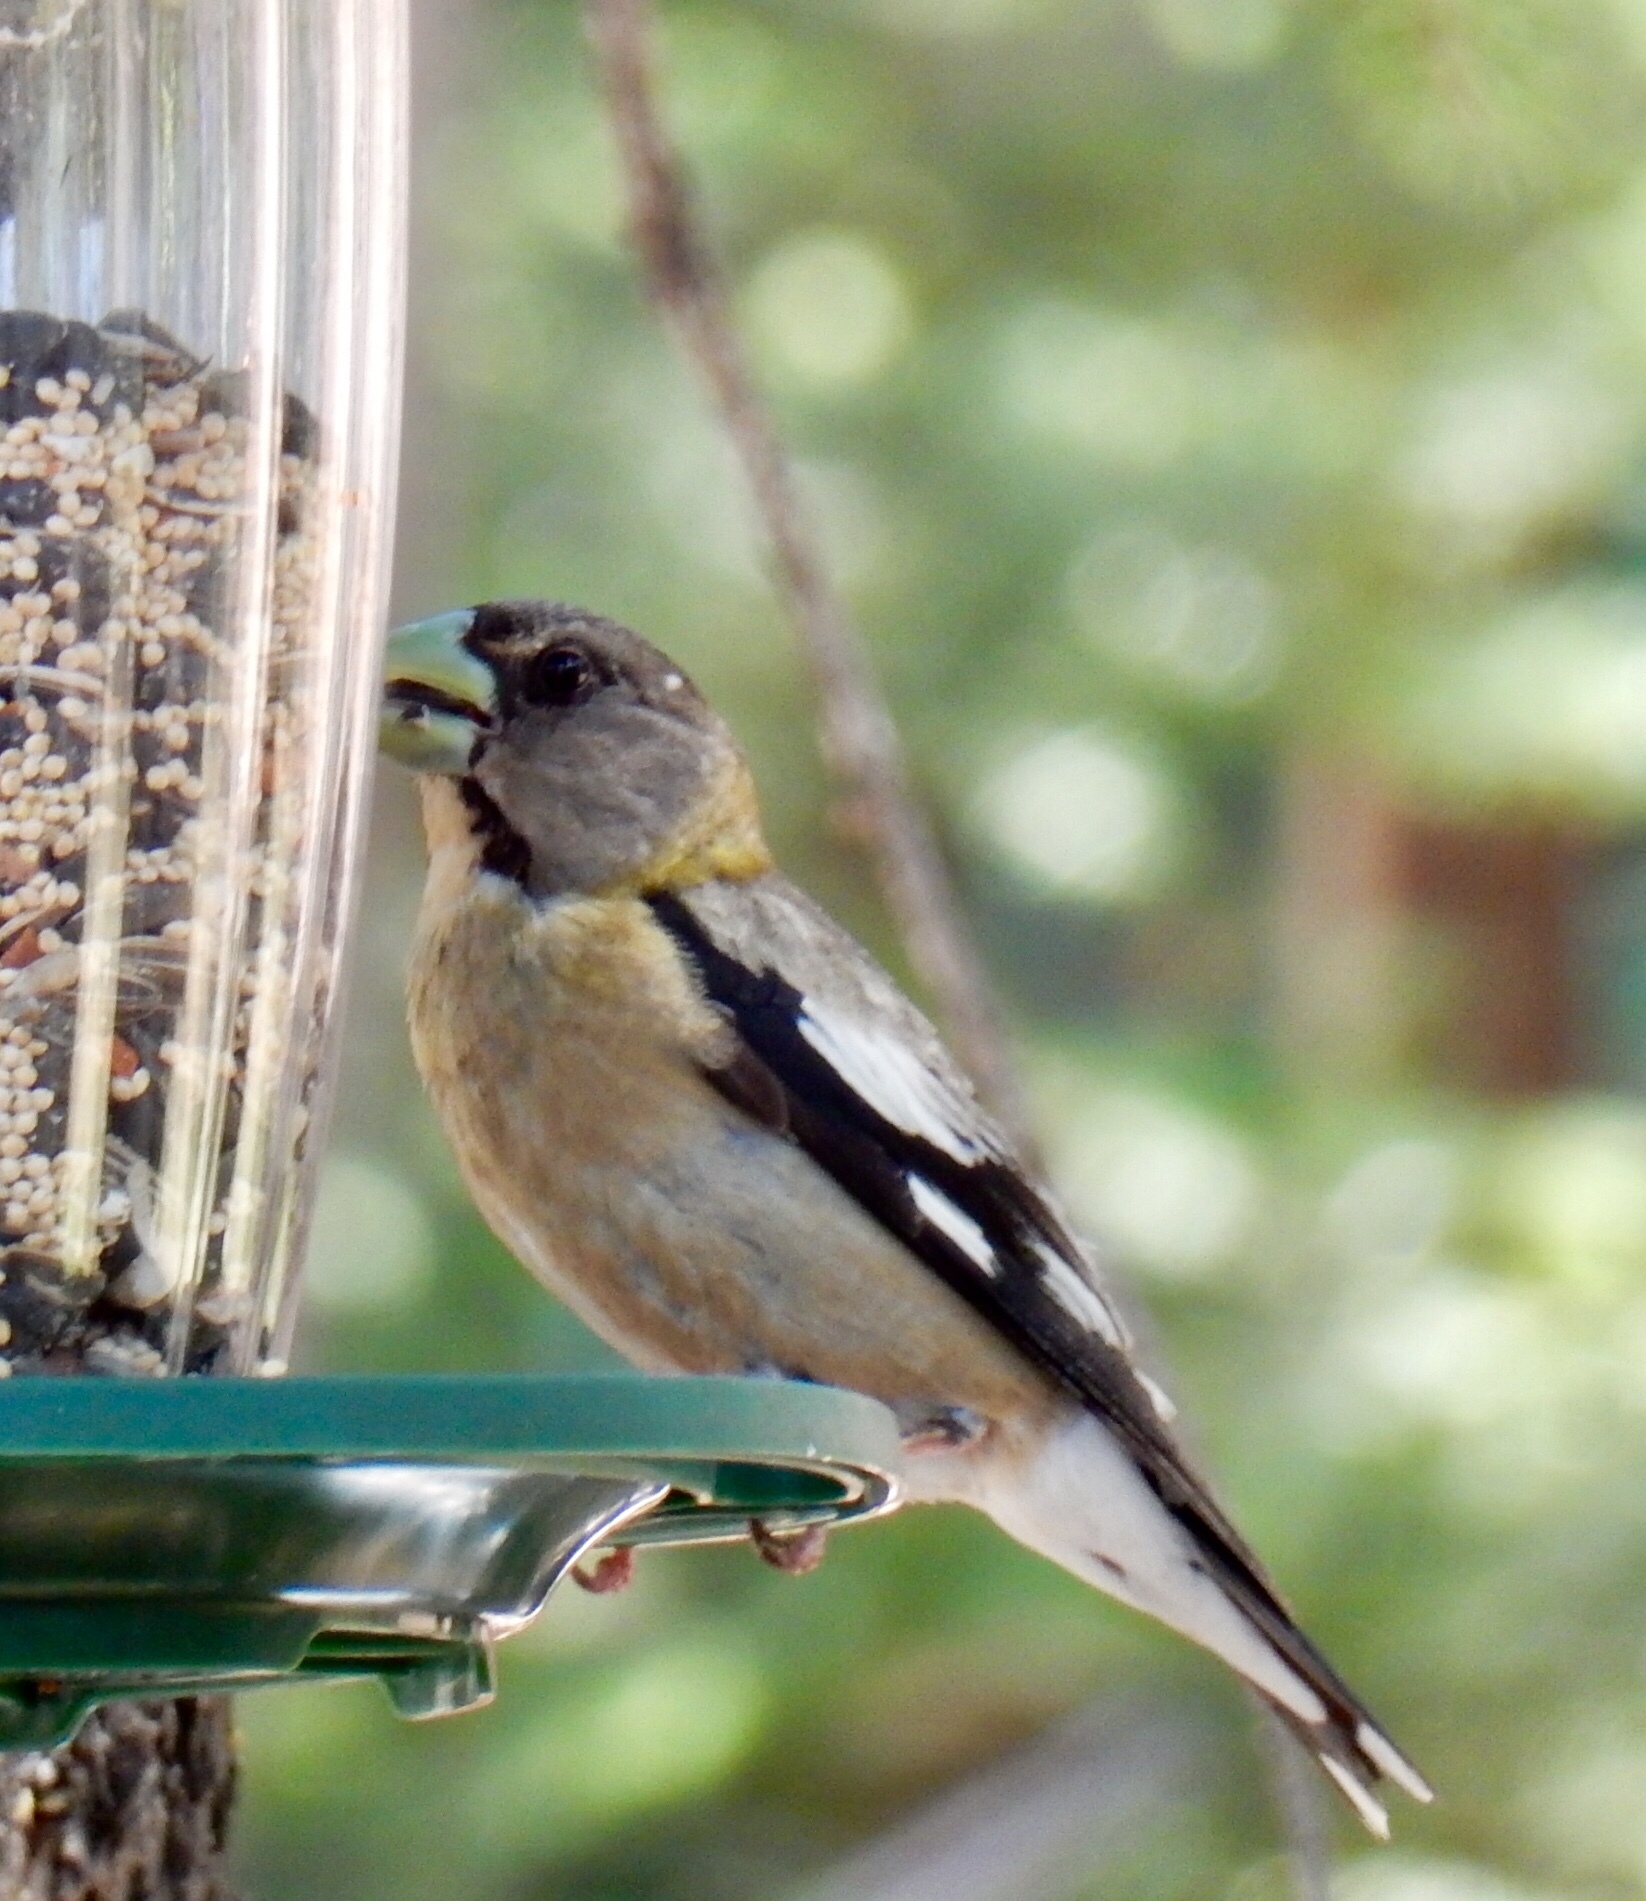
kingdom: Animalia
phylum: Chordata
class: Aves
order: Passeriformes
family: Fringillidae
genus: Hesperiphona
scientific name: Hesperiphona vespertina
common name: Evening grosbeak
